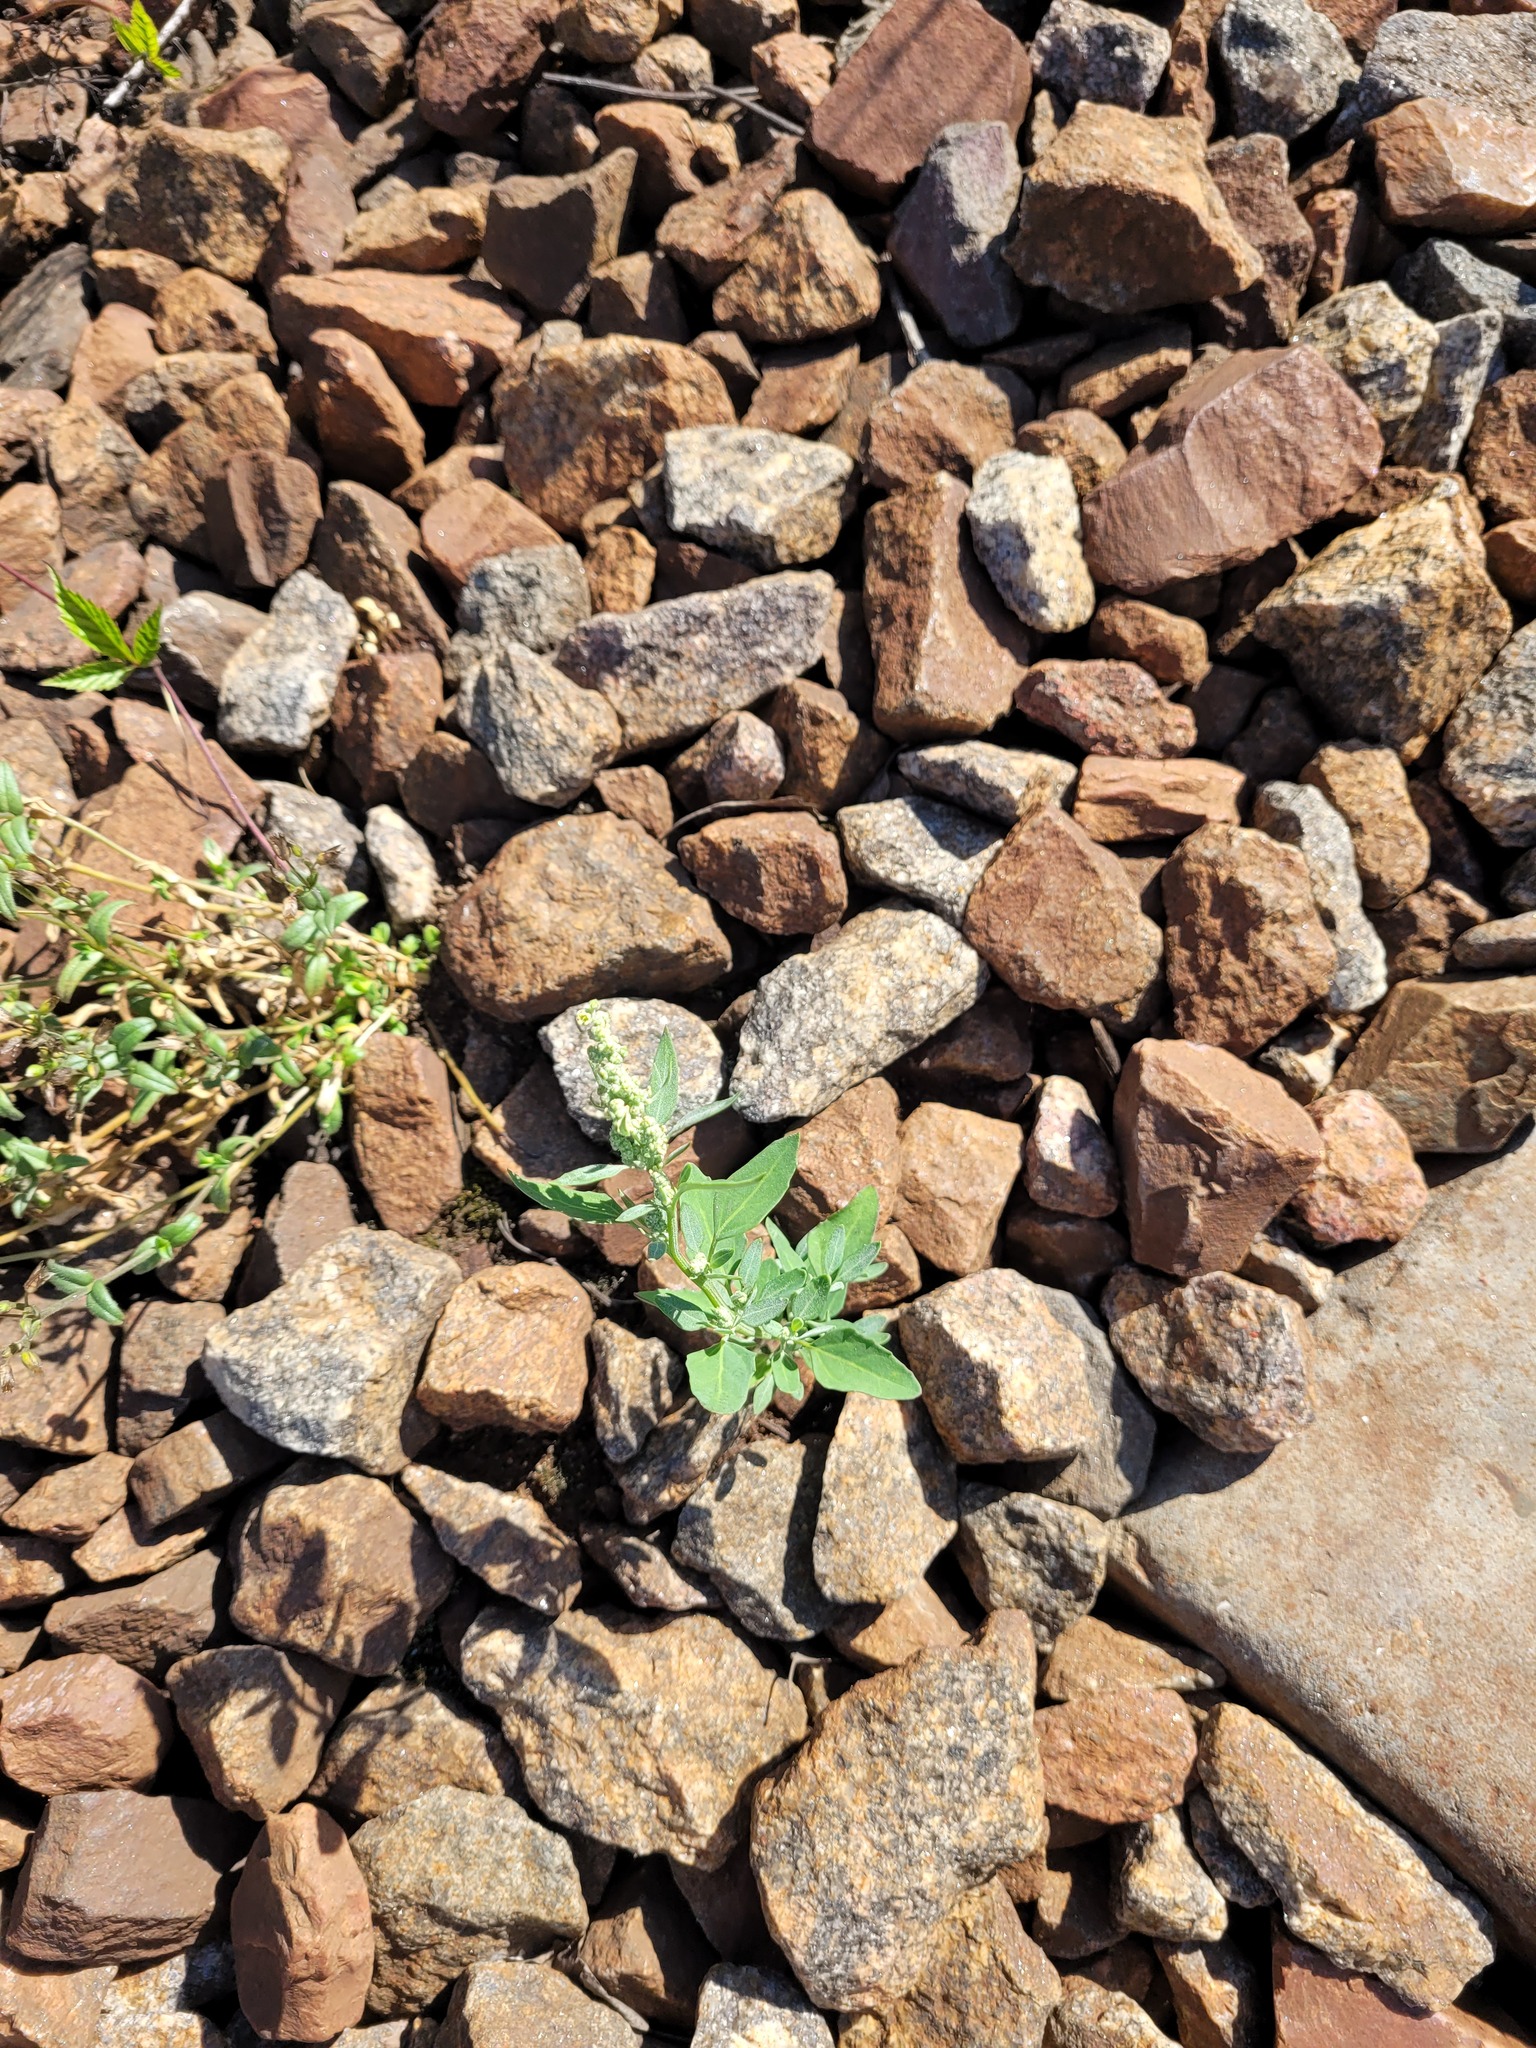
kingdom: Plantae
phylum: Tracheophyta
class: Magnoliopsida
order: Caryophyllales
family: Amaranthaceae
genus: Chenopodium
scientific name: Chenopodium album
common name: Fat-hen
